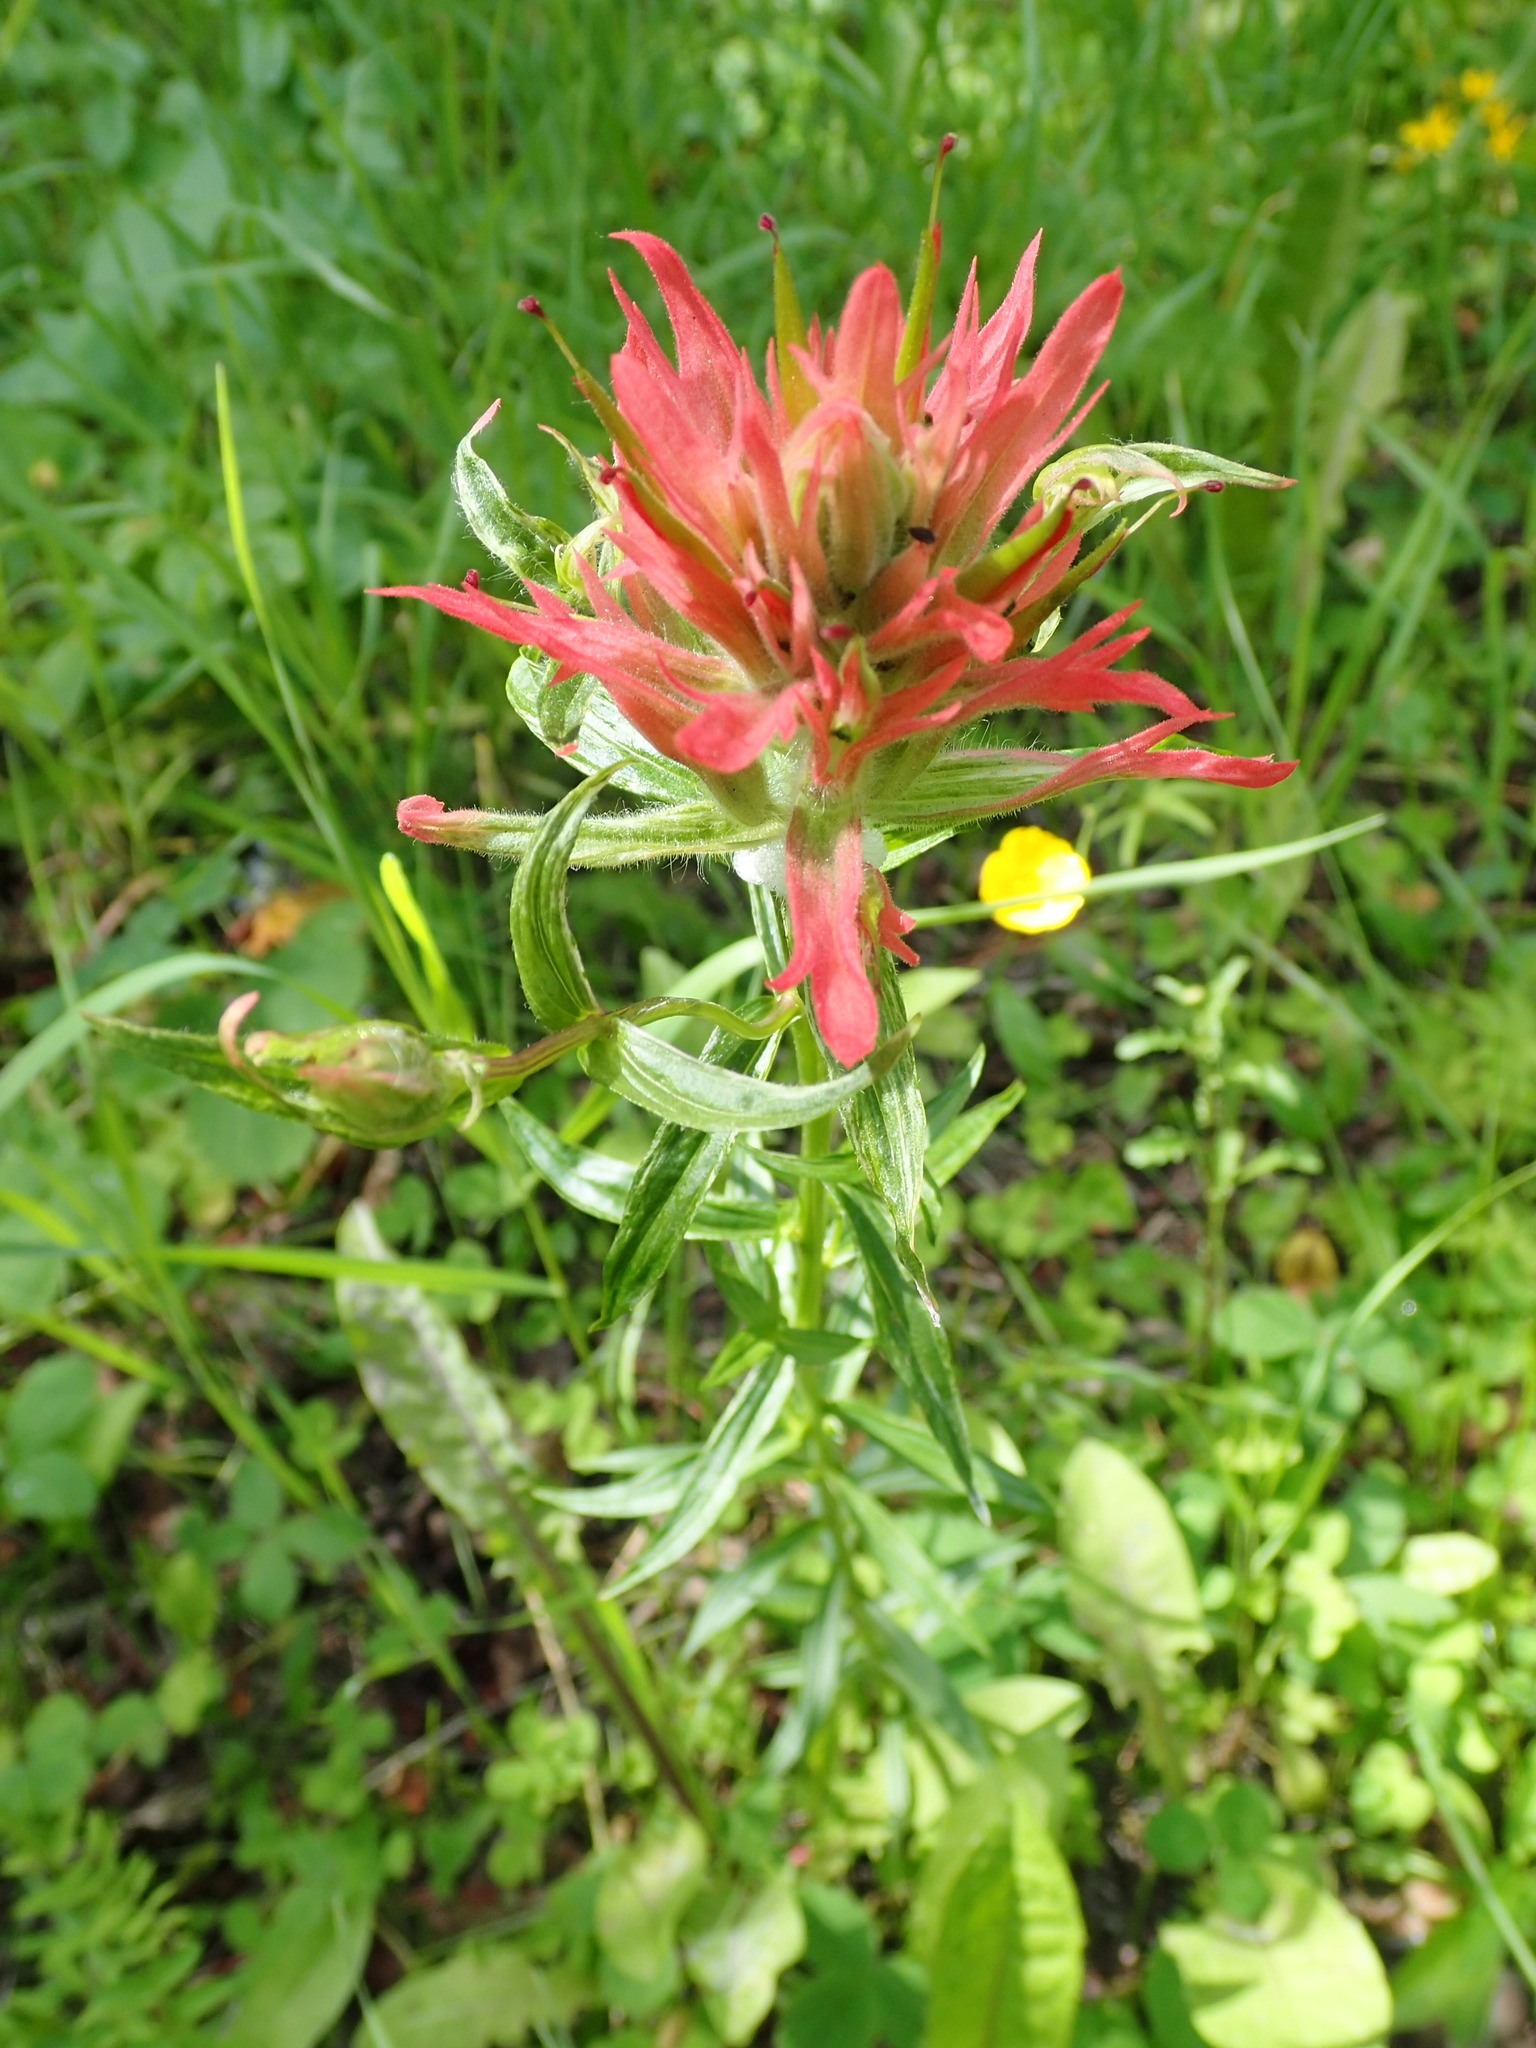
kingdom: Plantae
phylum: Tracheophyta
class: Magnoliopsida
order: Lamiales
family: Orobanchaceae
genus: Castilleja
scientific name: Castilleja miniata
